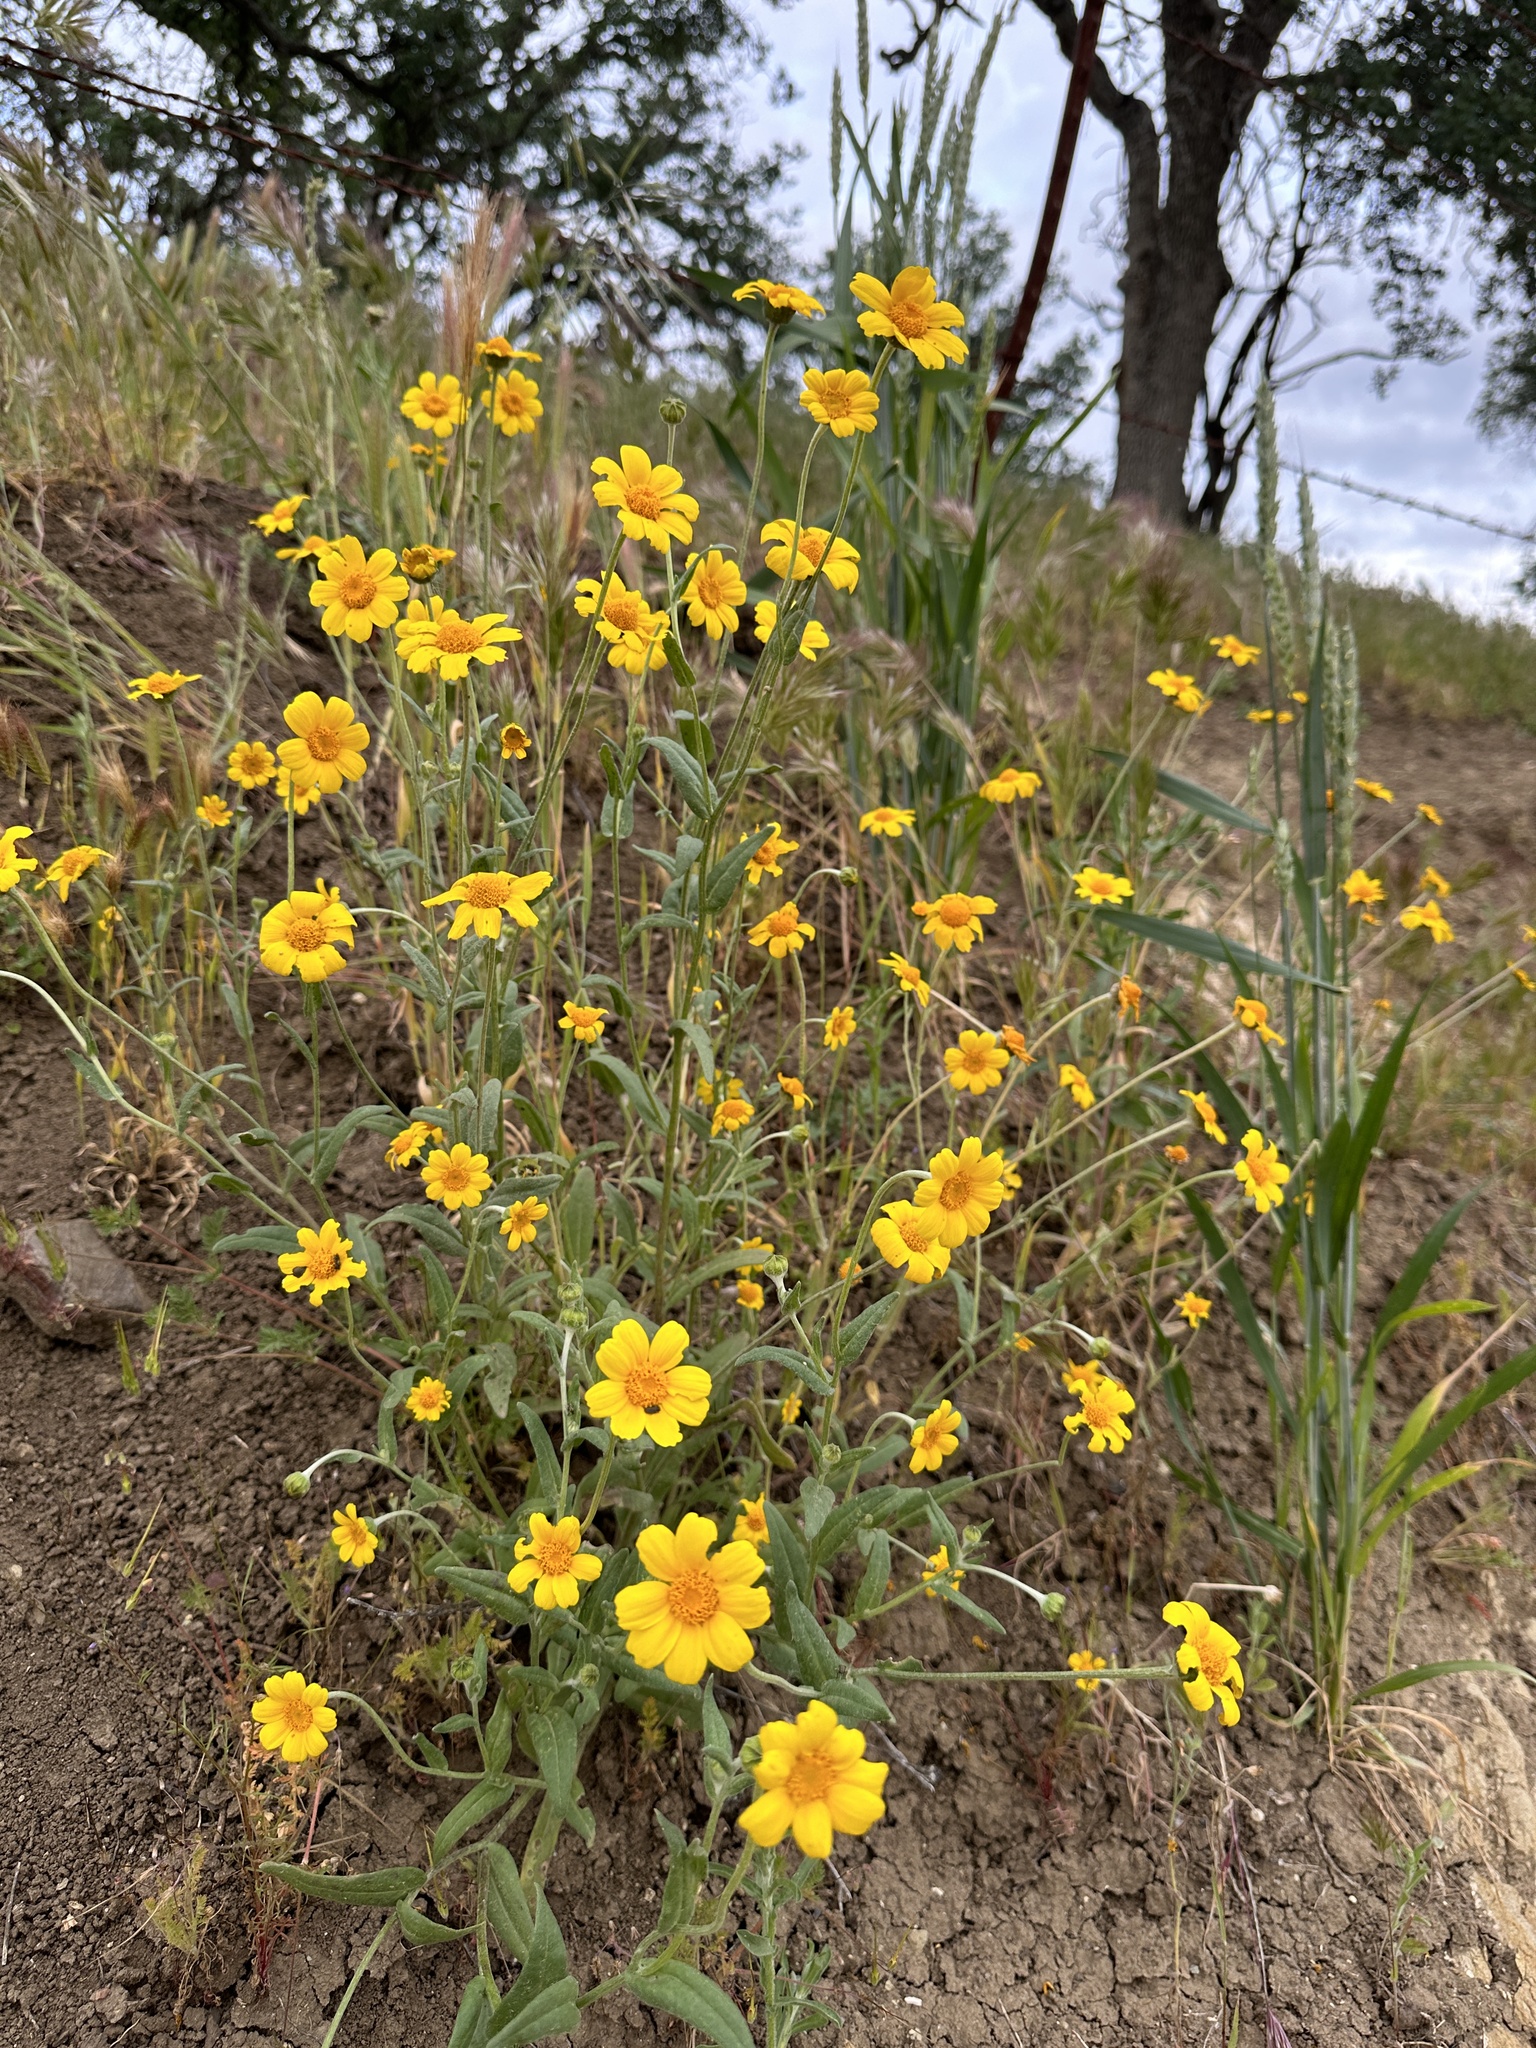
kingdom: Plantae
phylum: Tracheophyta
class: Magnoliopsida
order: Asterales
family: Asteraceae
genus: Monolopia
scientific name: Monolopia major
